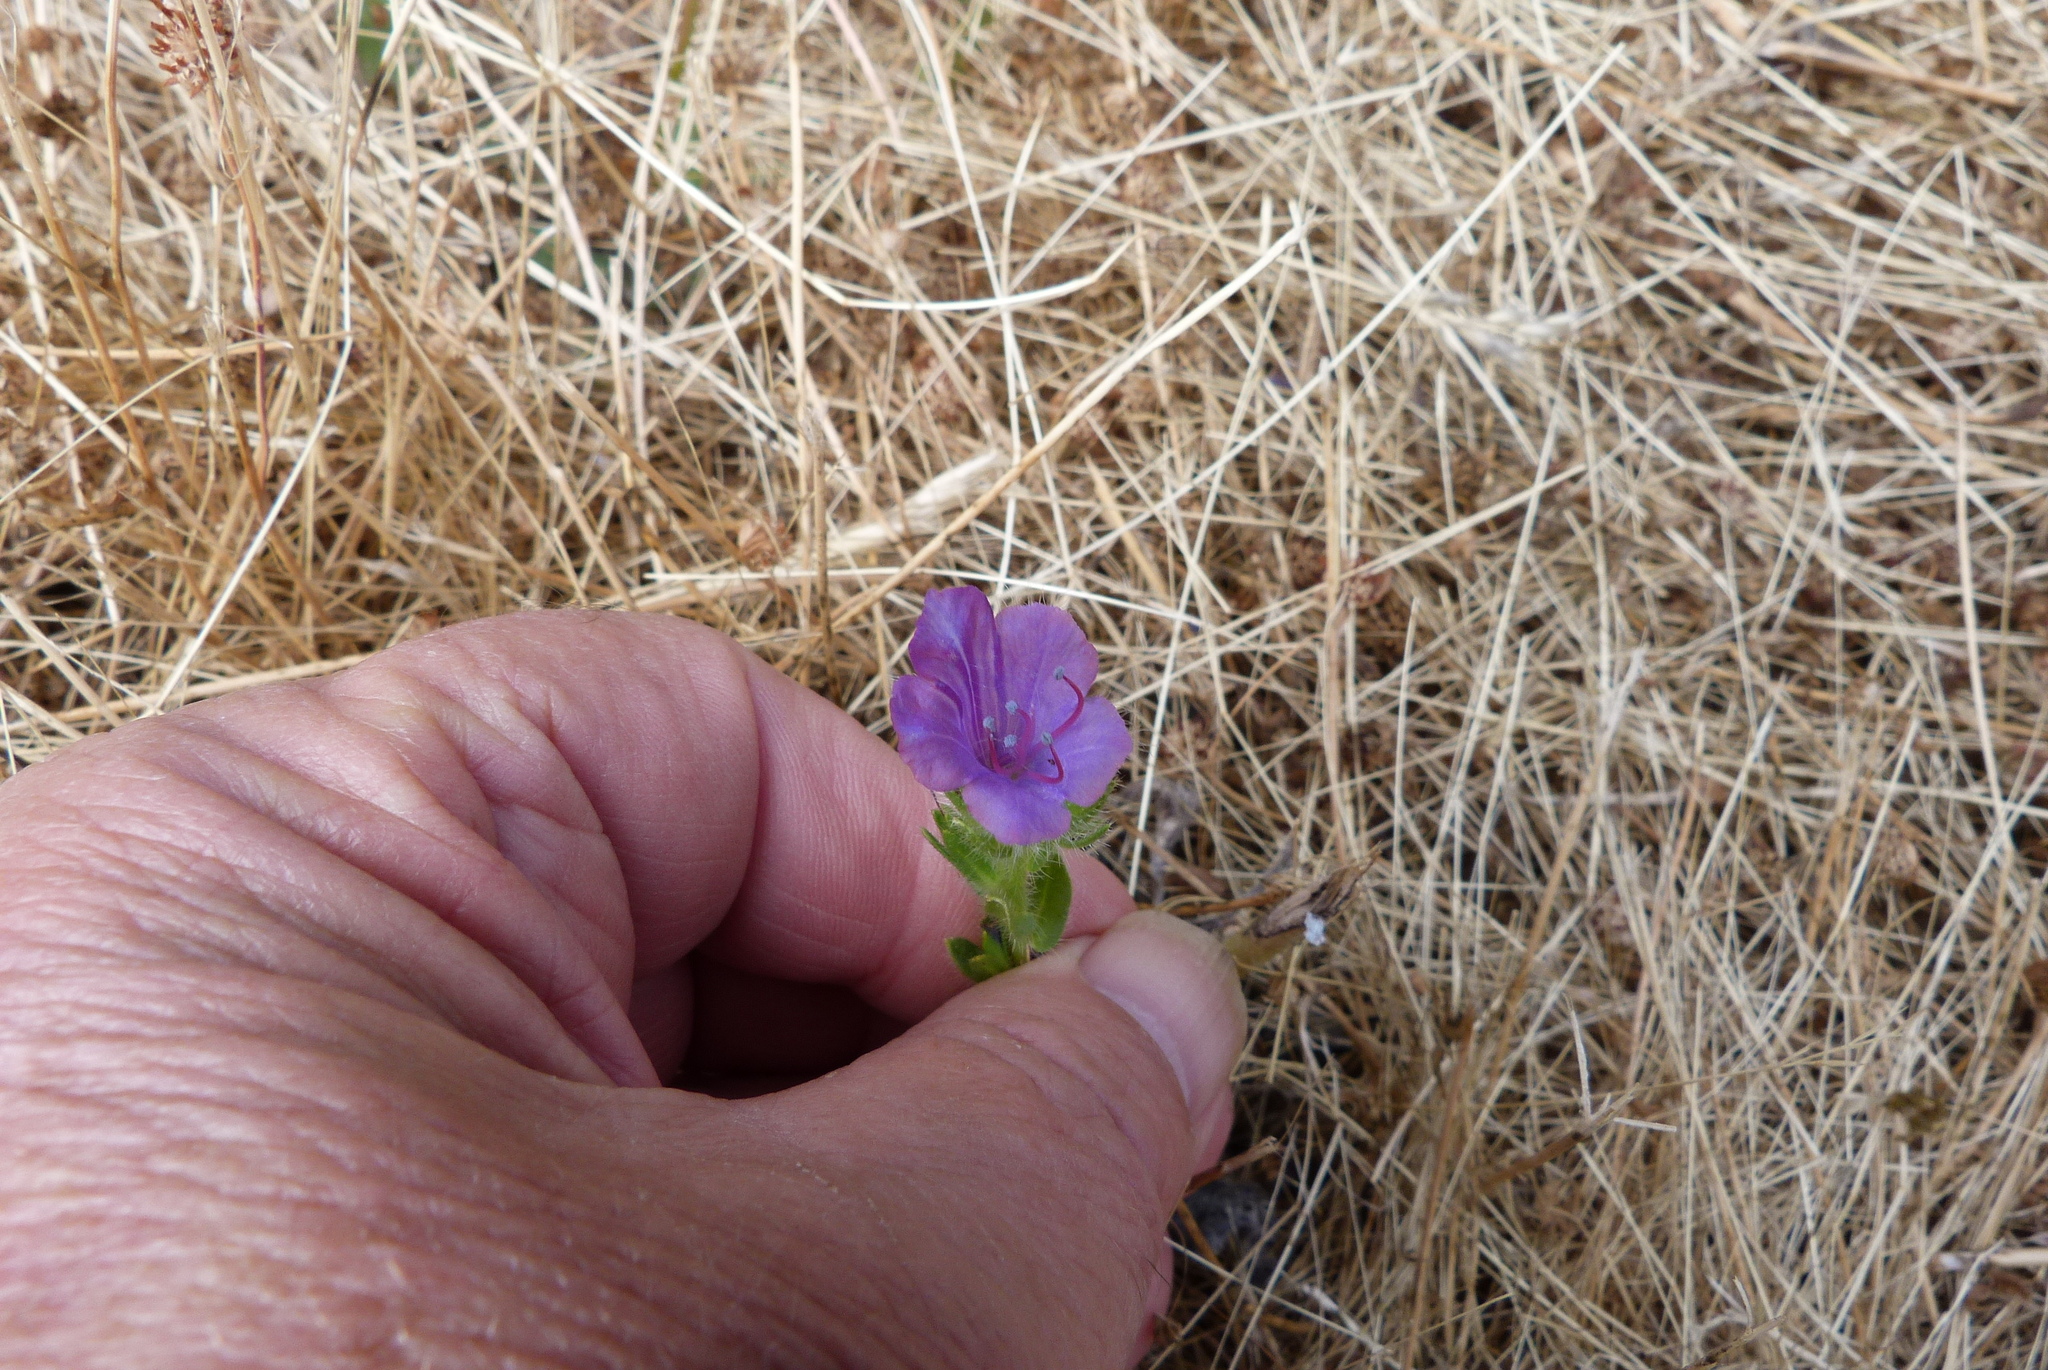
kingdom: Plantae
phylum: Tracheophyta
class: Magnoliopsida
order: Boraginales
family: Boraginaceae
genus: Echium
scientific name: Echium plantagineum
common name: Purple viper's-bugloss
